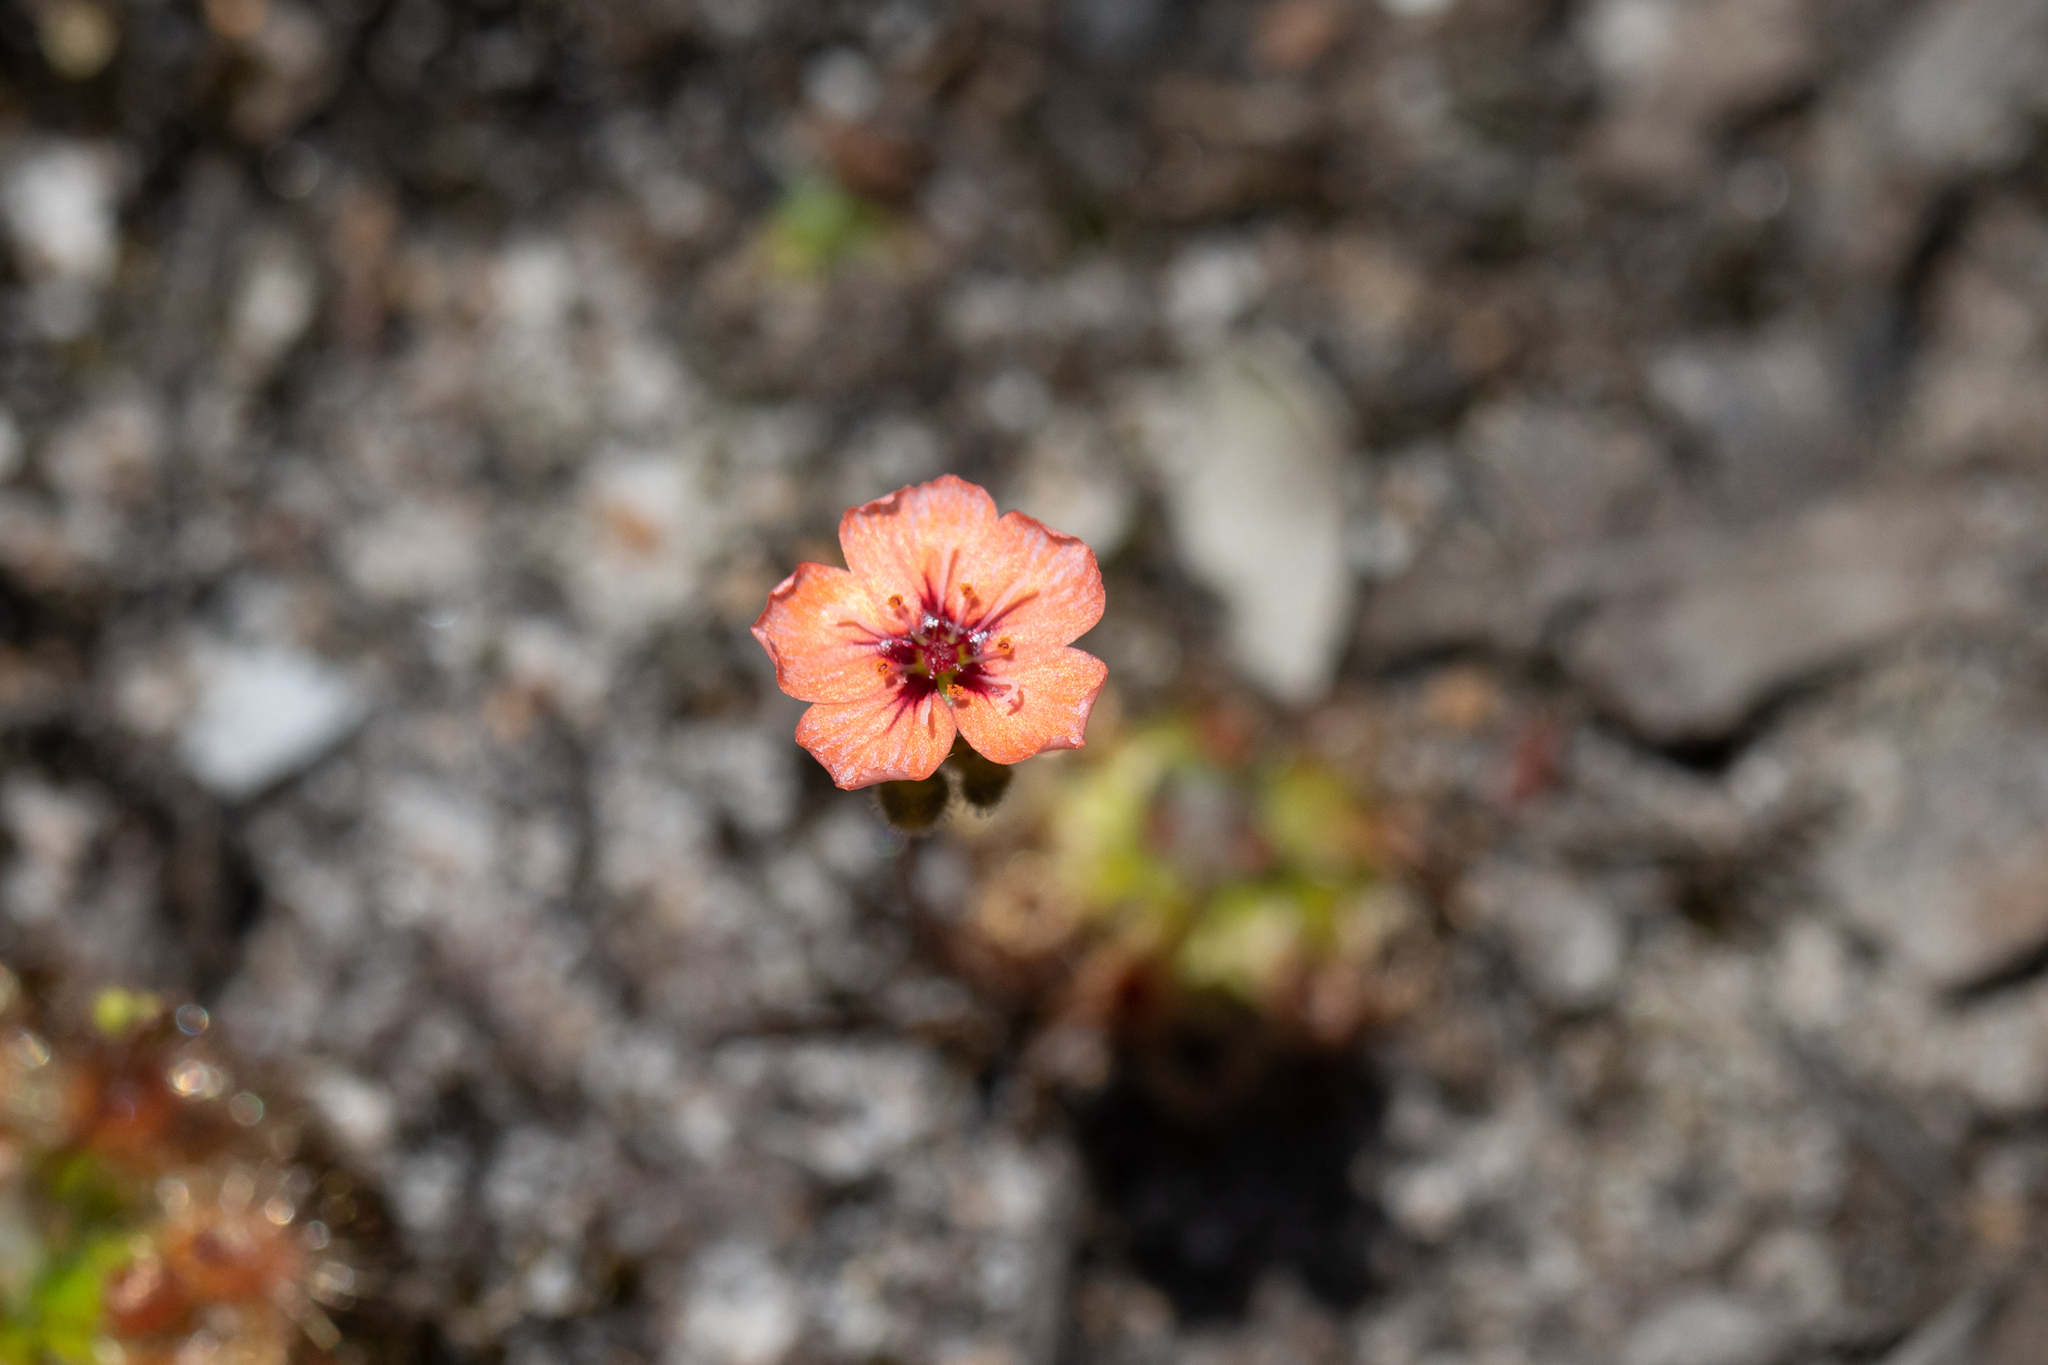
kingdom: Plantae
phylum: Tracheophyta
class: Magnoliopsida
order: Caryophyllales
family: Droseraceae
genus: Drosera
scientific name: Drosera pulchella
